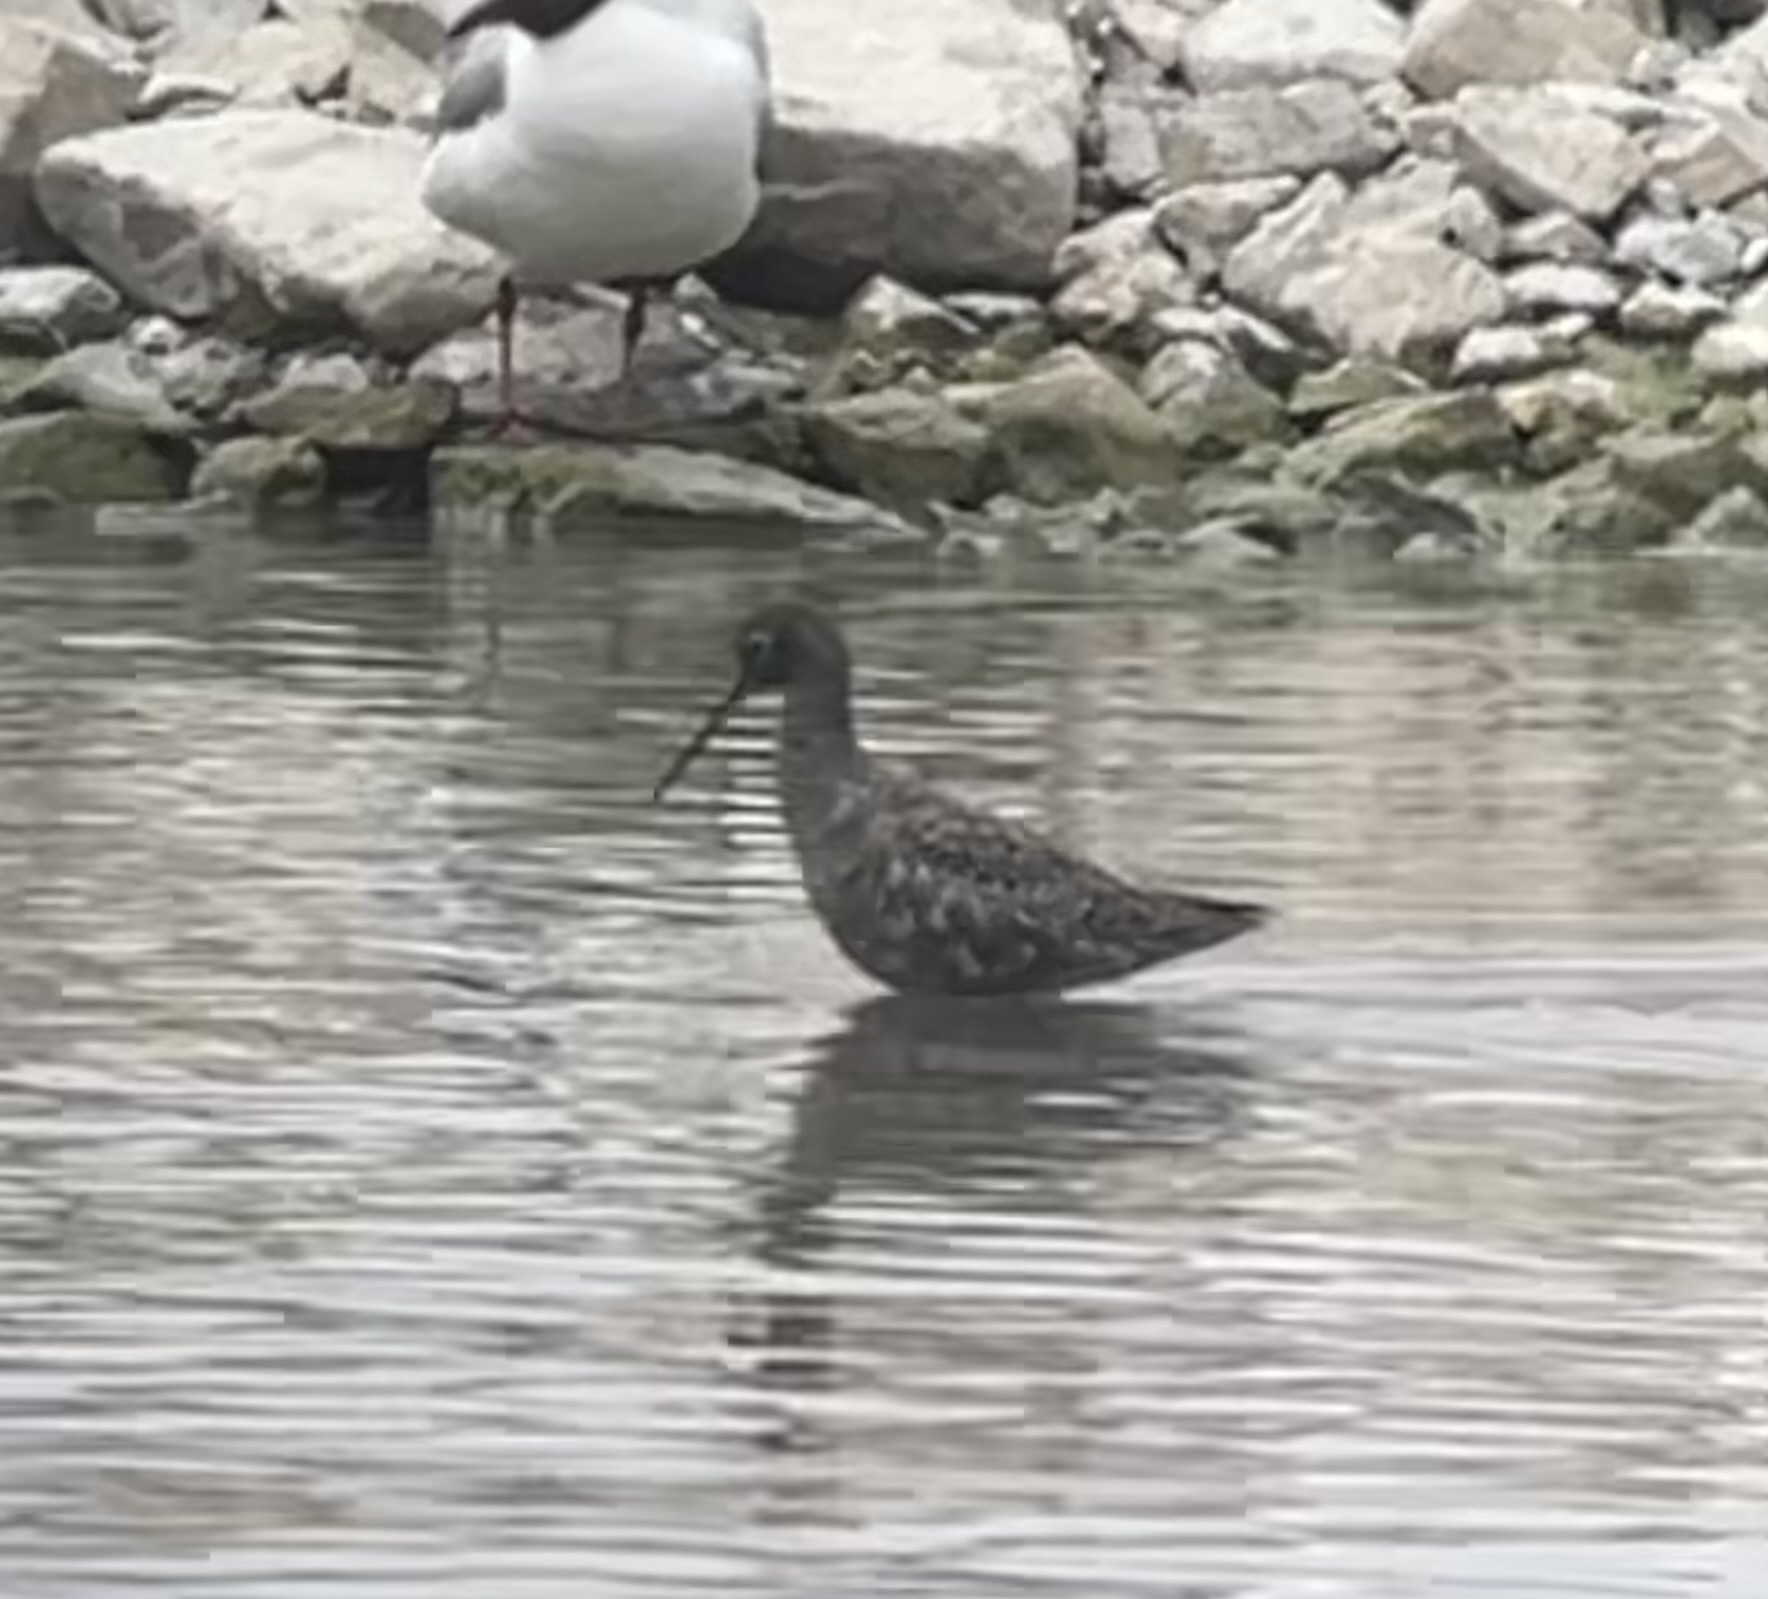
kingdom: Animalia
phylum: Chordata
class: Aves
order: Charadriiformes
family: Scolopacidae
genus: Tringa
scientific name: Tringa erythropus
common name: Spotted redshank
